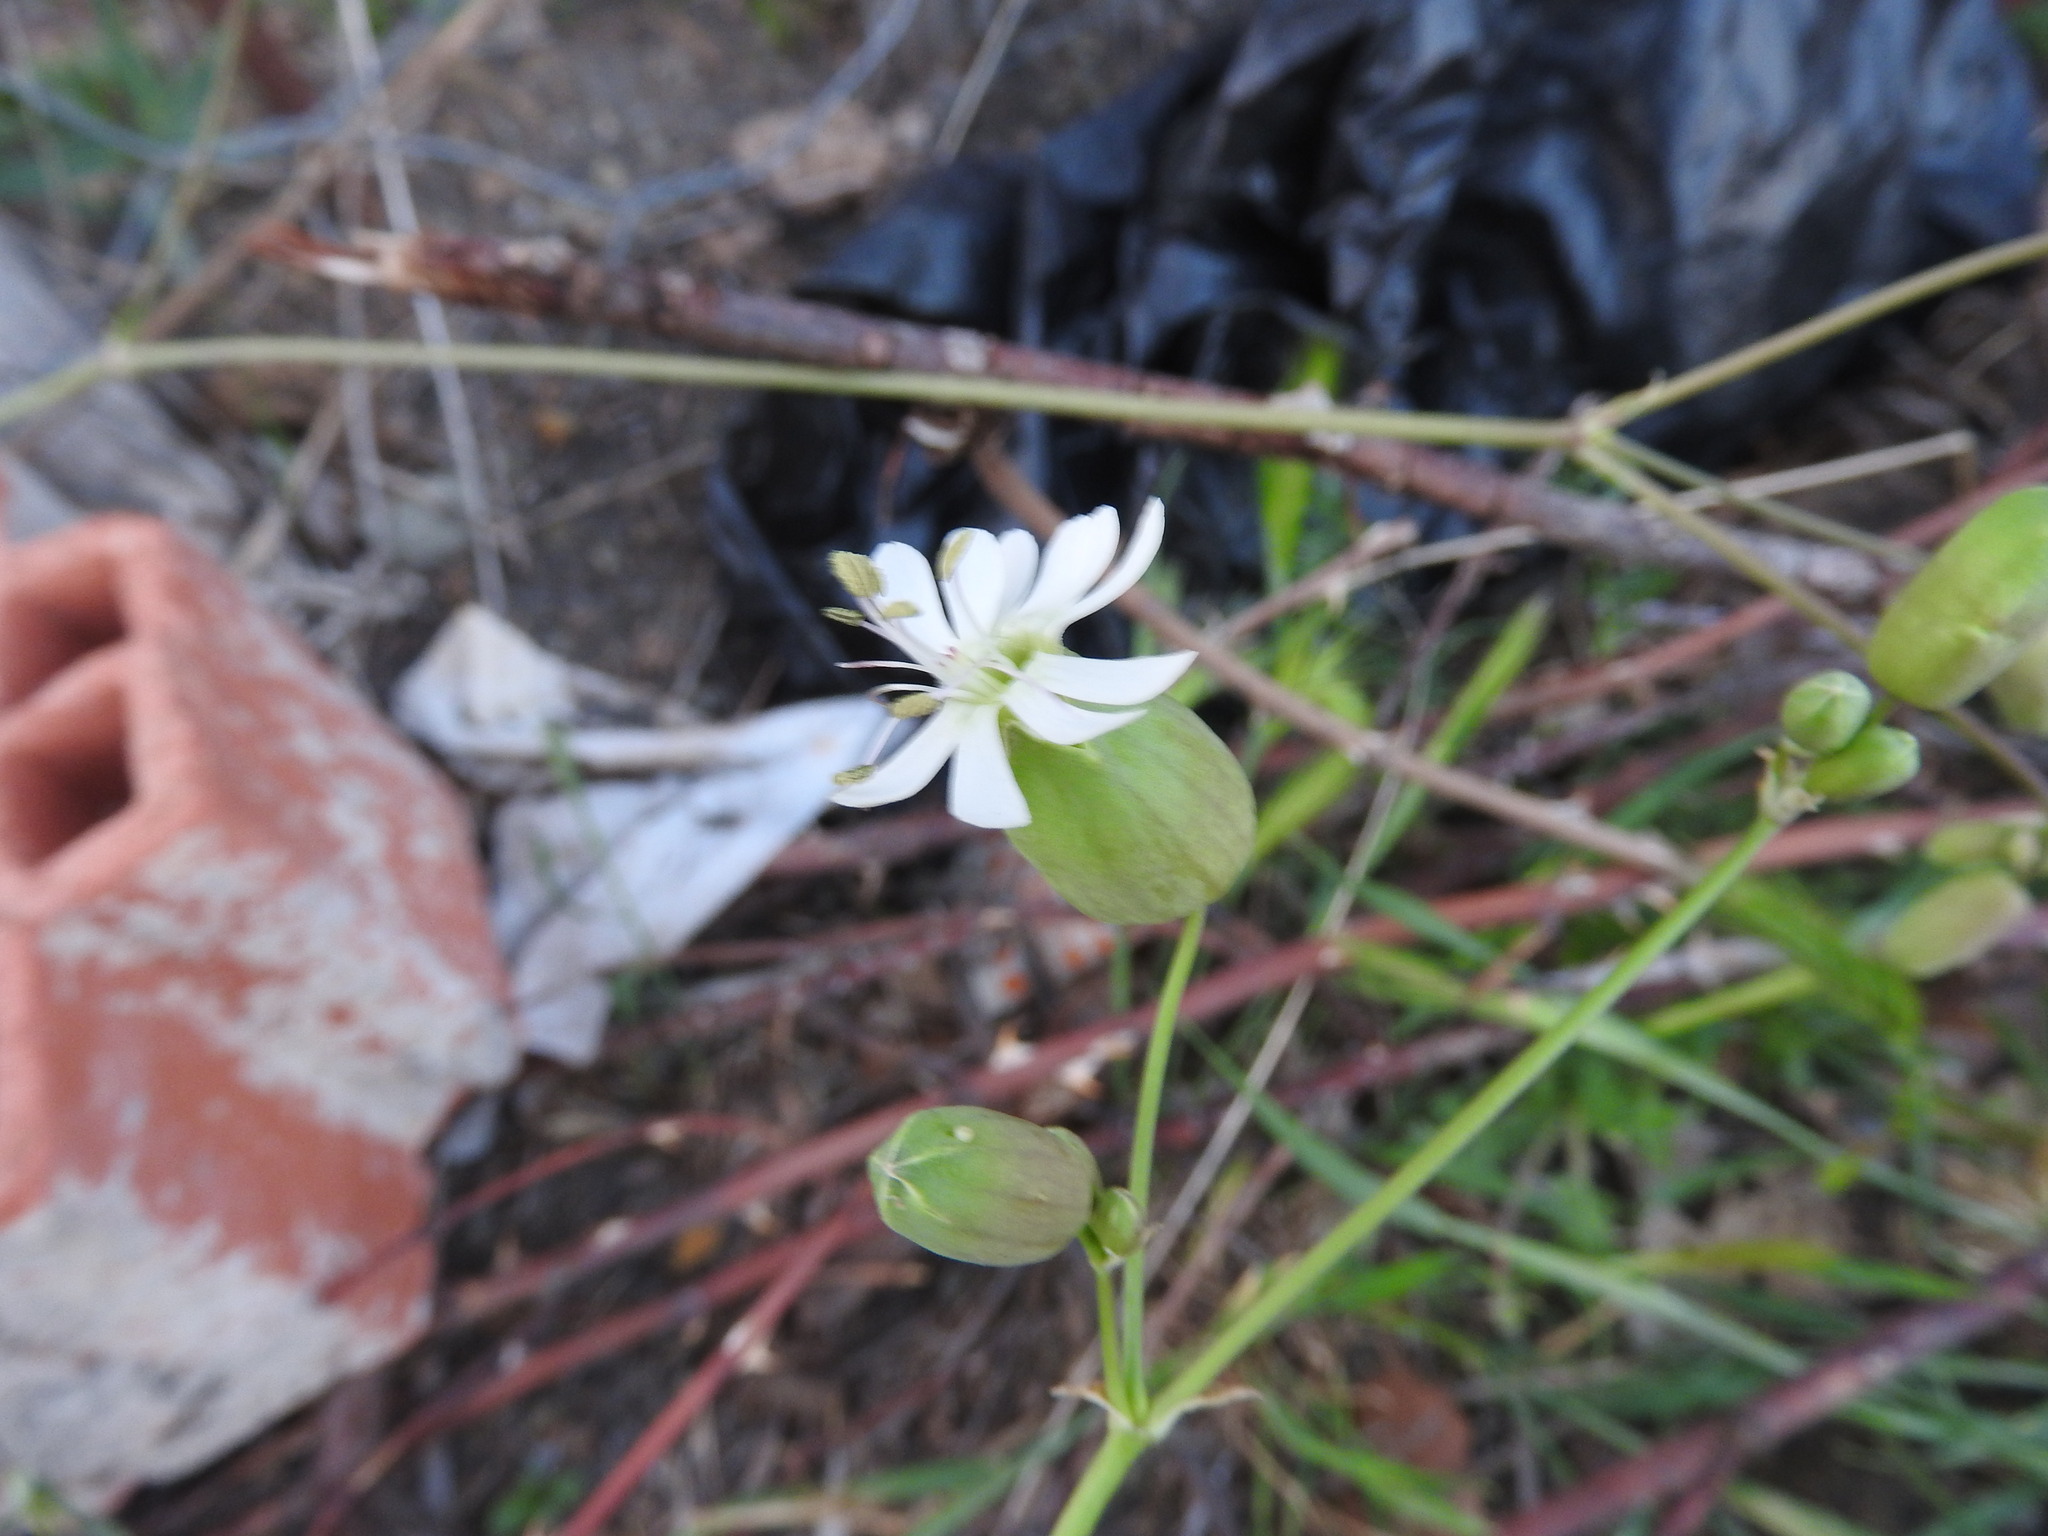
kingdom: Plantae
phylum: Tracheophyta
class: Magnoliopsida
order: Caryophyllales
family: Caryophyllaceae
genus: Silene
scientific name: Silene vulgaris
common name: Bladder campion
